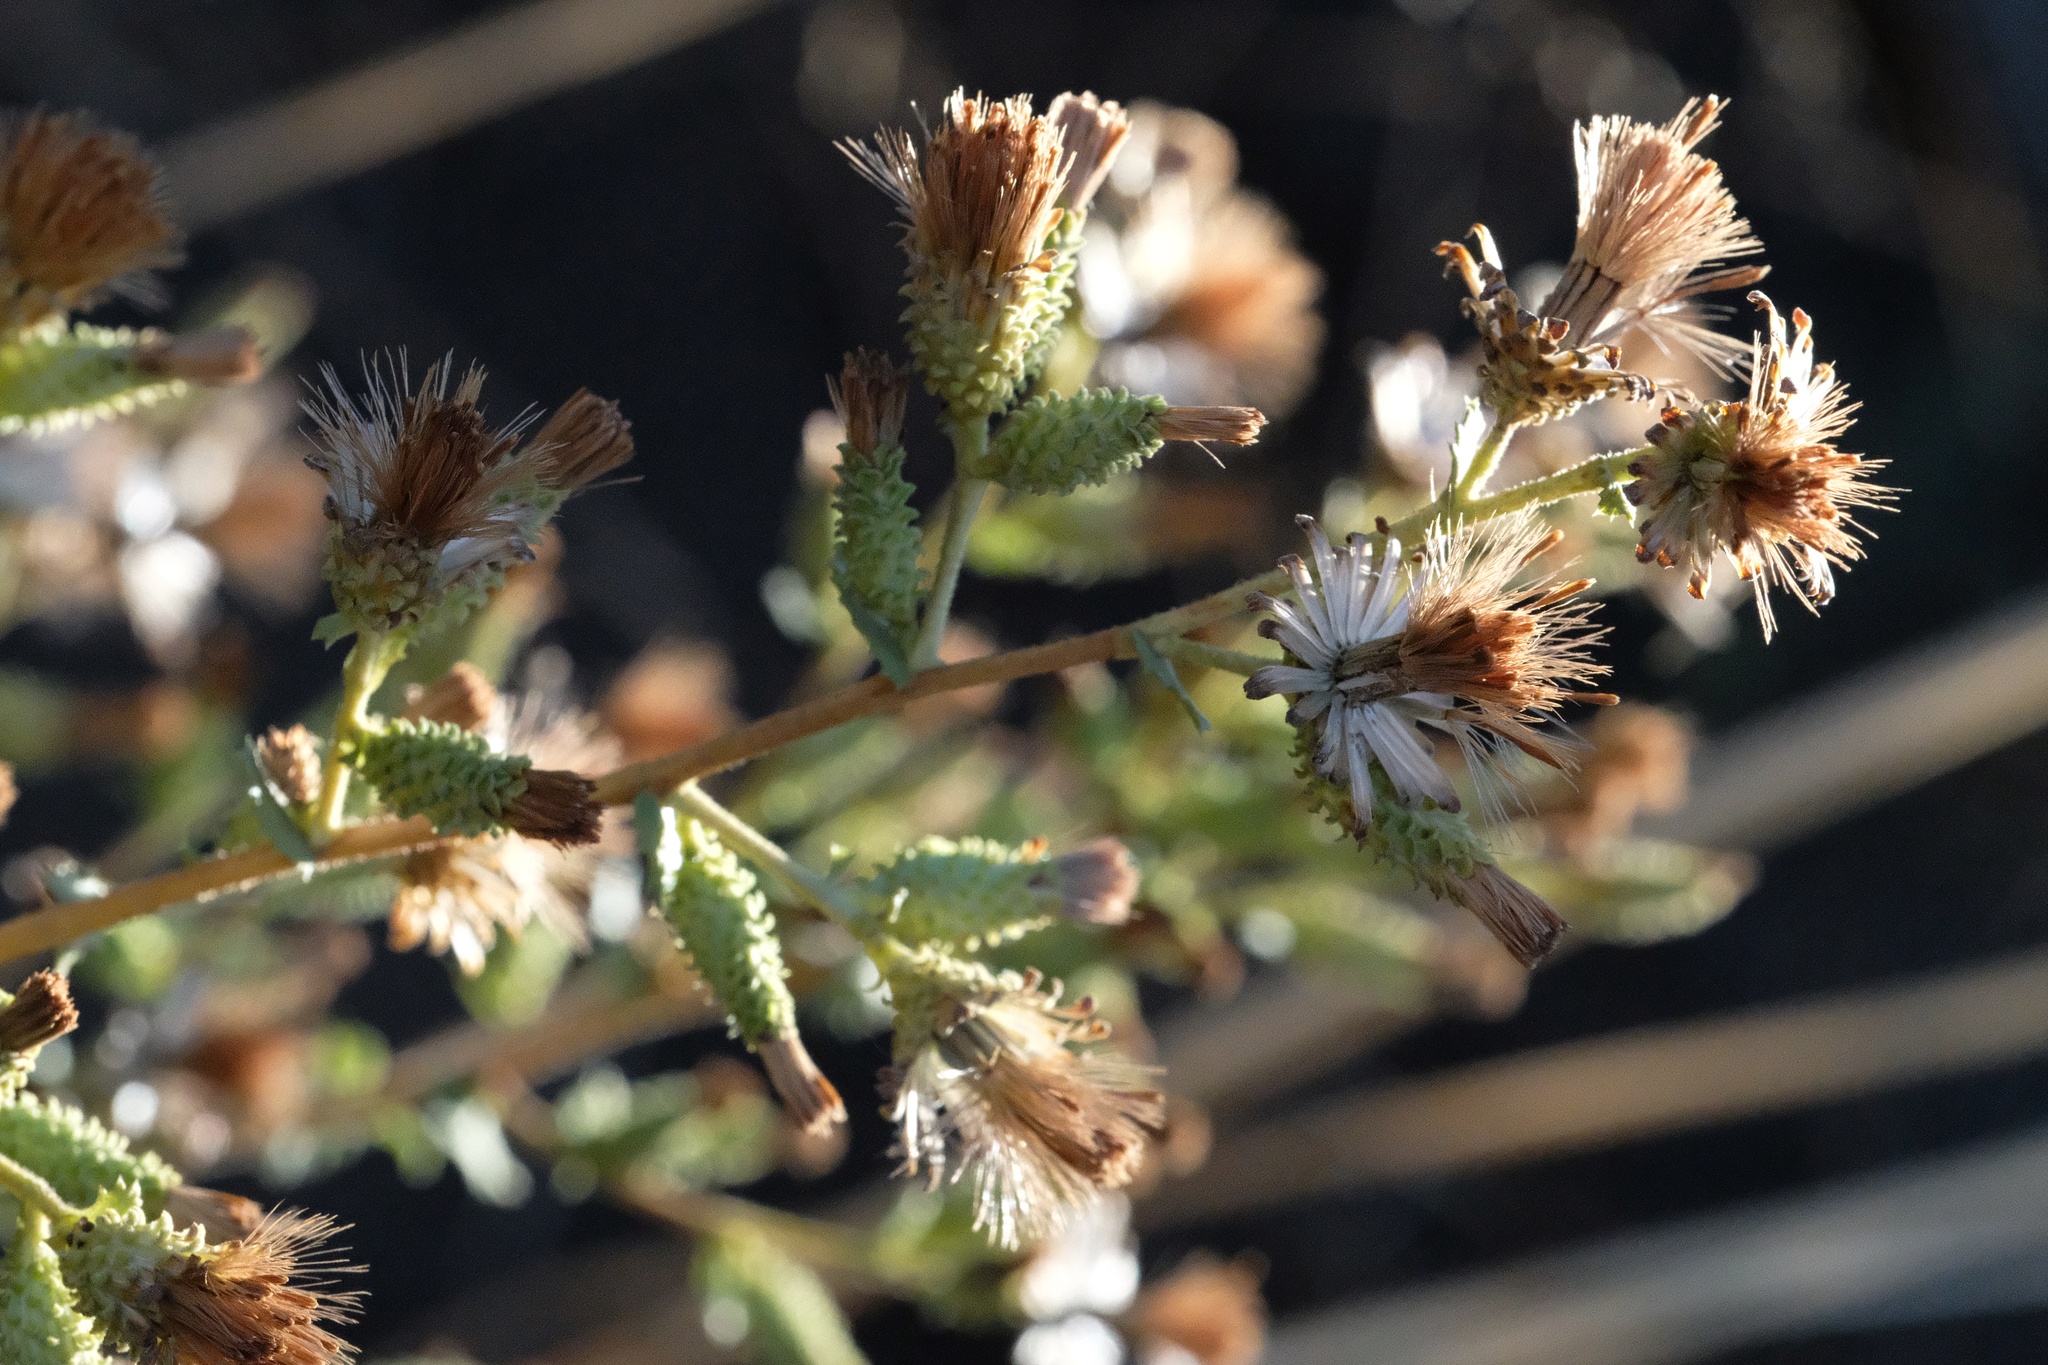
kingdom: Plantae
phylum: Tracheophyta
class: Magnoliopsida
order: Asterales
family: Asteraceae
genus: Hazardia
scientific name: Hazardia squarrosa
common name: Saw-tooth goldenbush
